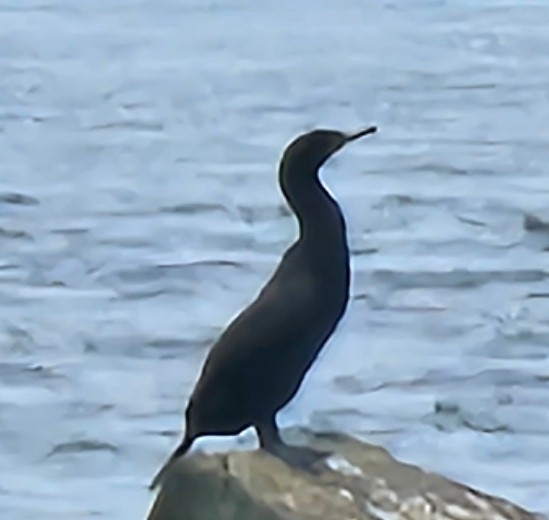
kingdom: Animalia
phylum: Chordata
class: Aves
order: Suliformes
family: Phalacrocoracidae
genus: Phalacrocorax
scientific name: Phalacrocorax auritus
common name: Double-crested cormorant
